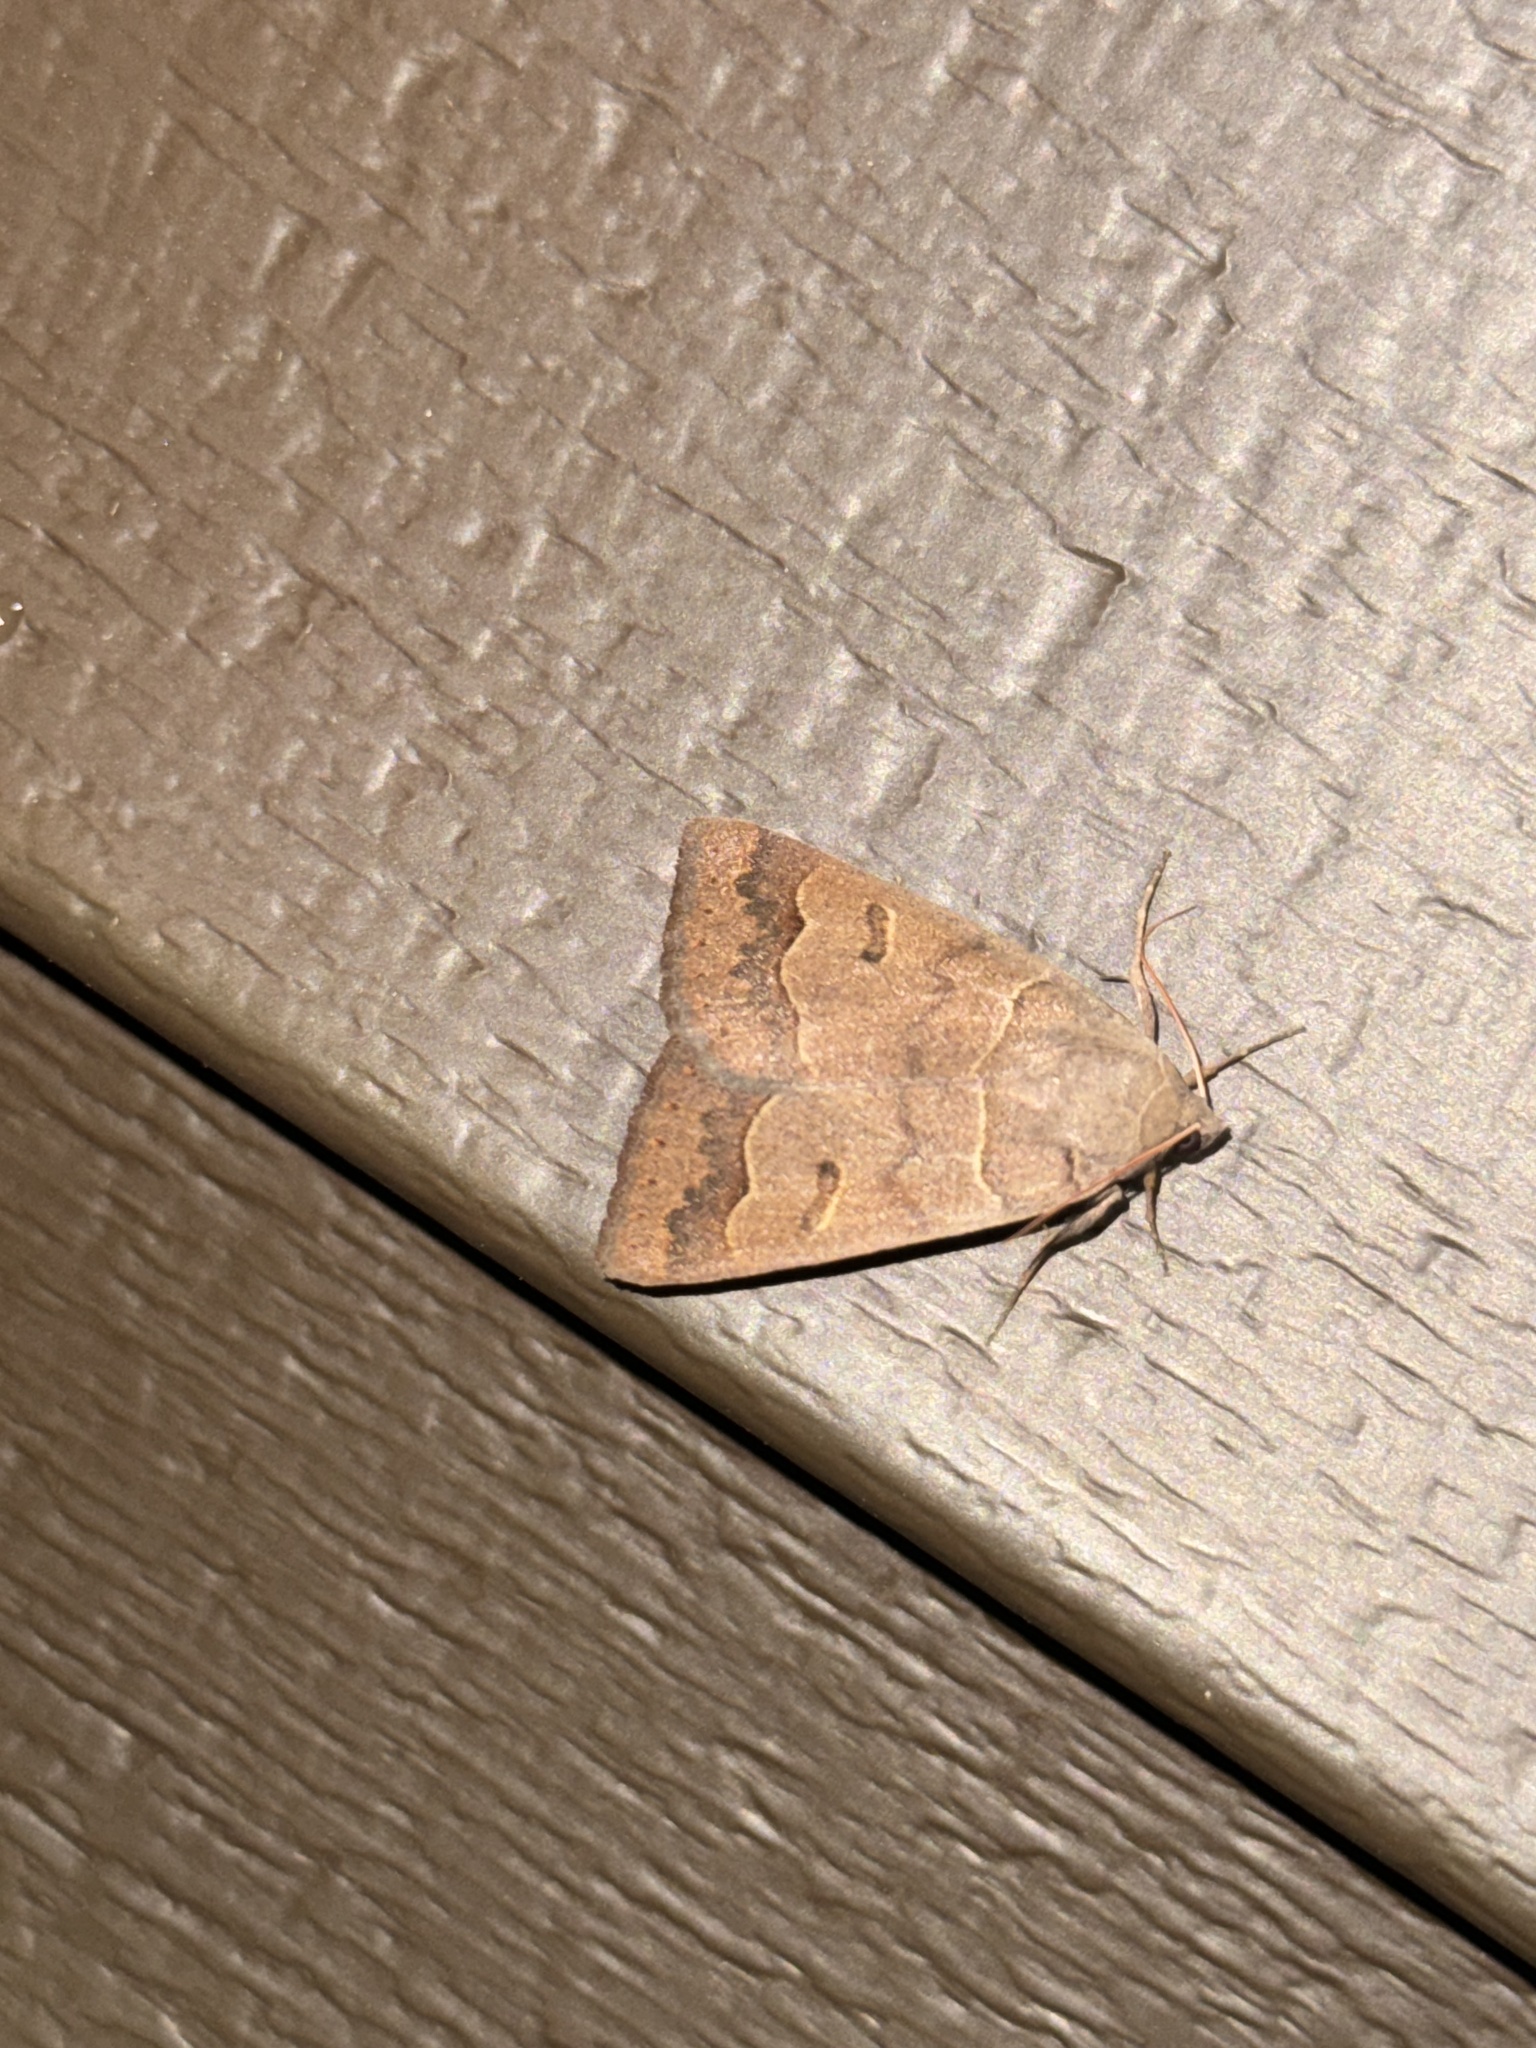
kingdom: Animalia
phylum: Arthropoda
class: Insecta
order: Lepidoptera
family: Erebidae
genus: Phoberia
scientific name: Phoberia atomaris
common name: Common oak moth
